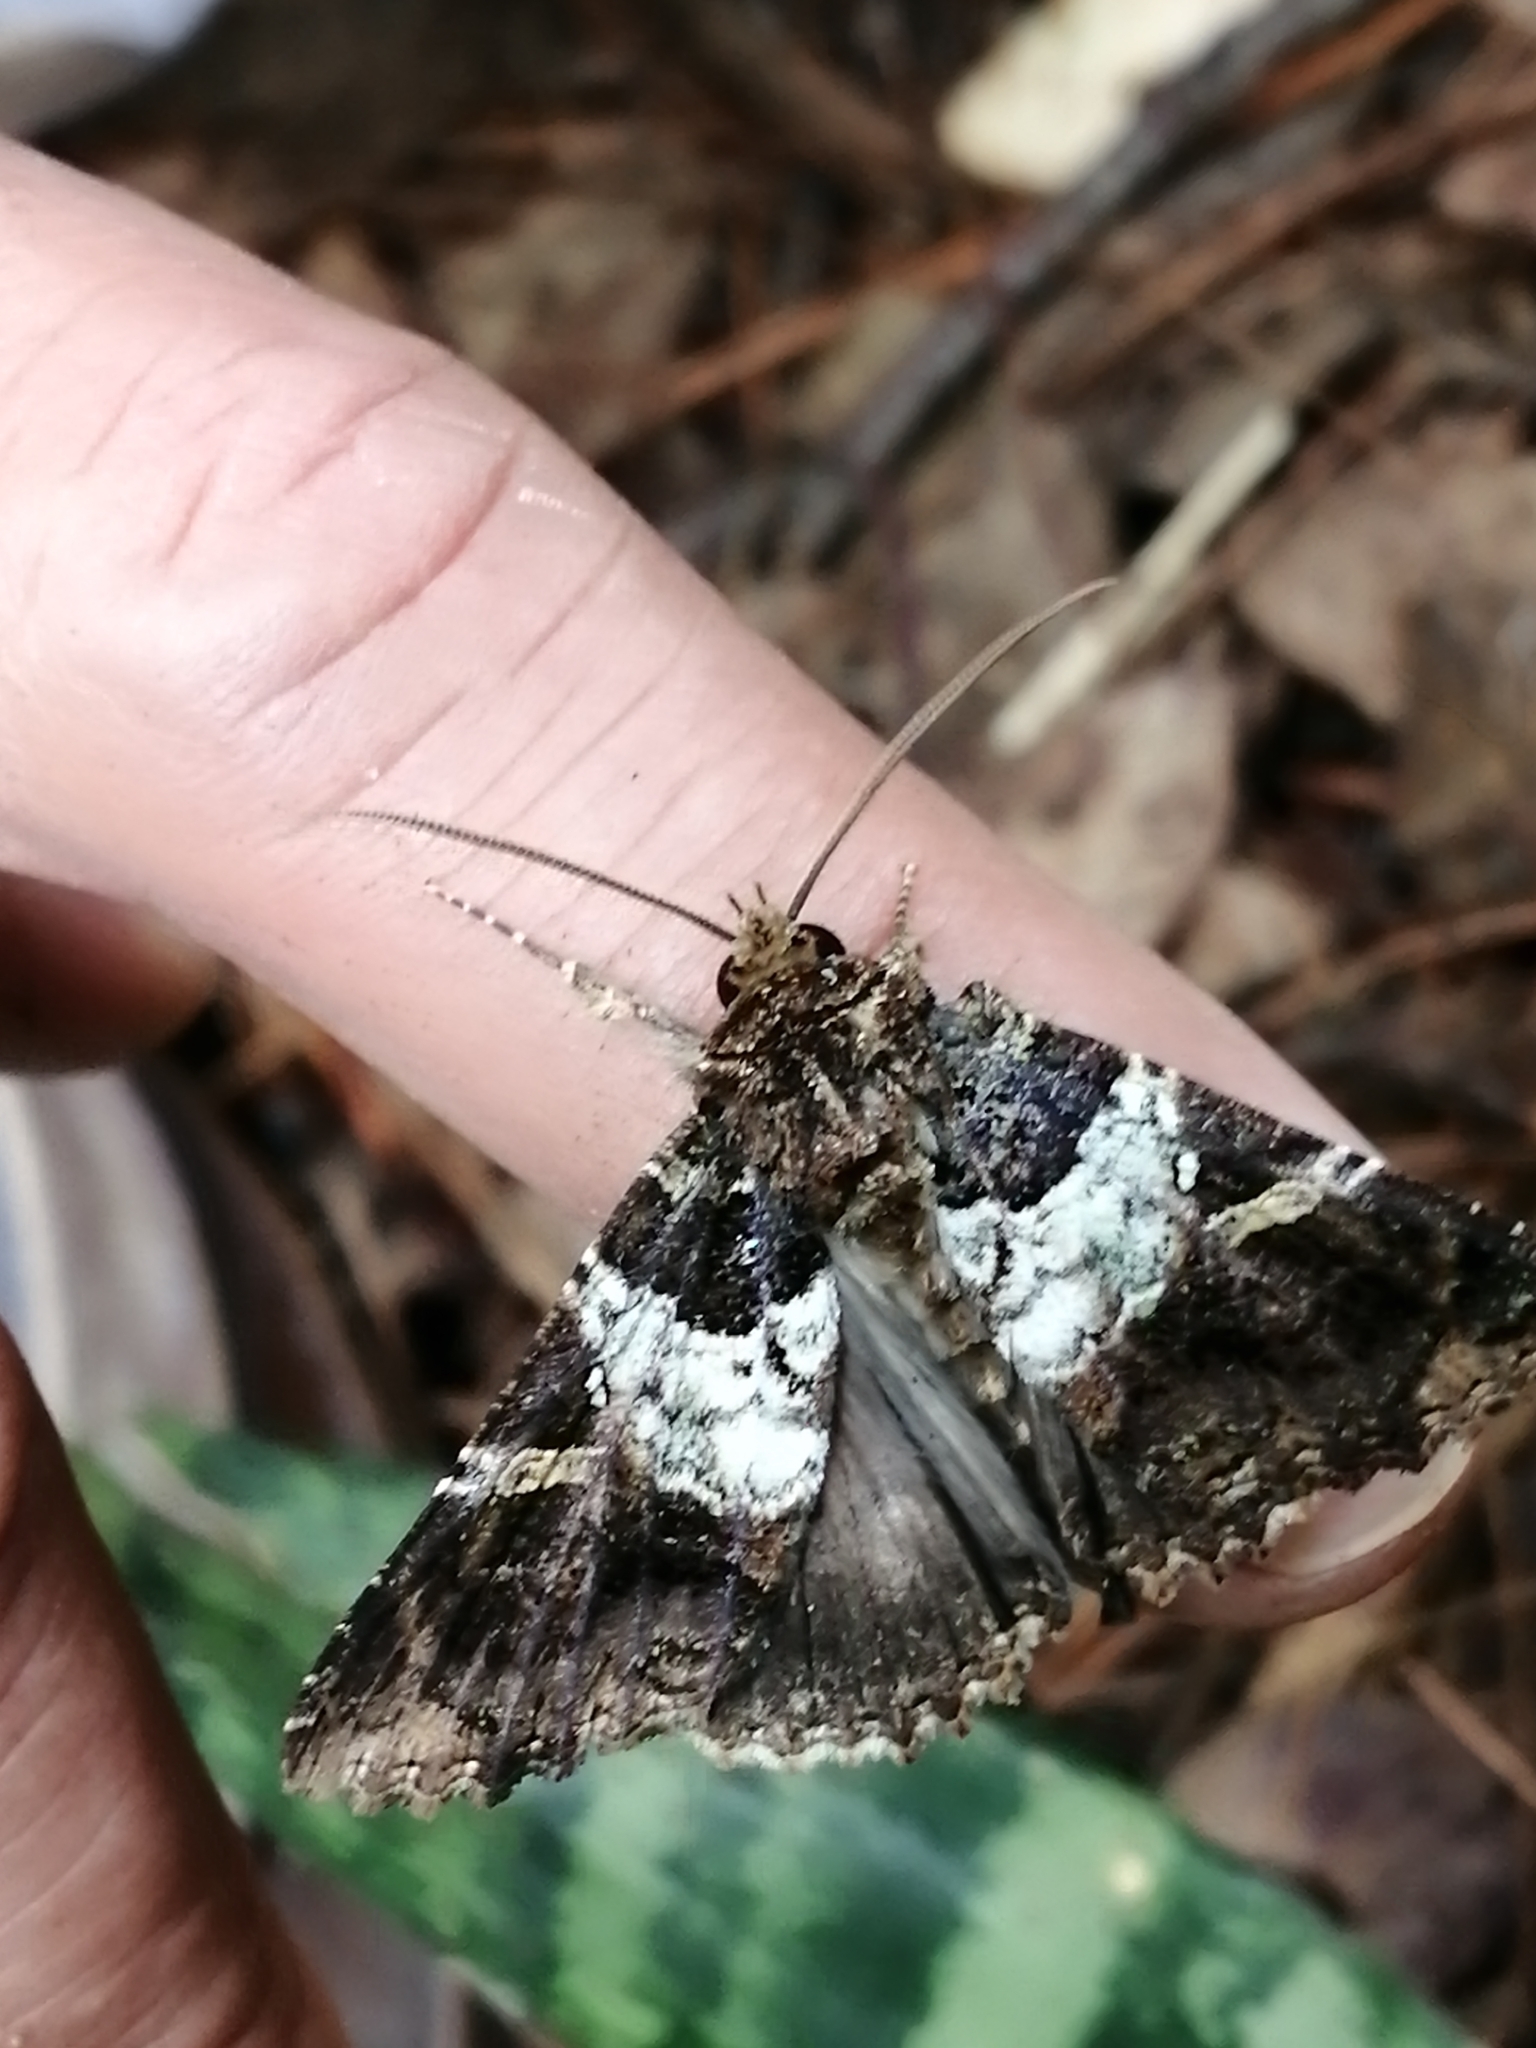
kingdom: Animalia
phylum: Arthropoda
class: Insecta
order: Lepidoptera
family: Erebidae
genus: Safidia
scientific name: Safidia druceria
